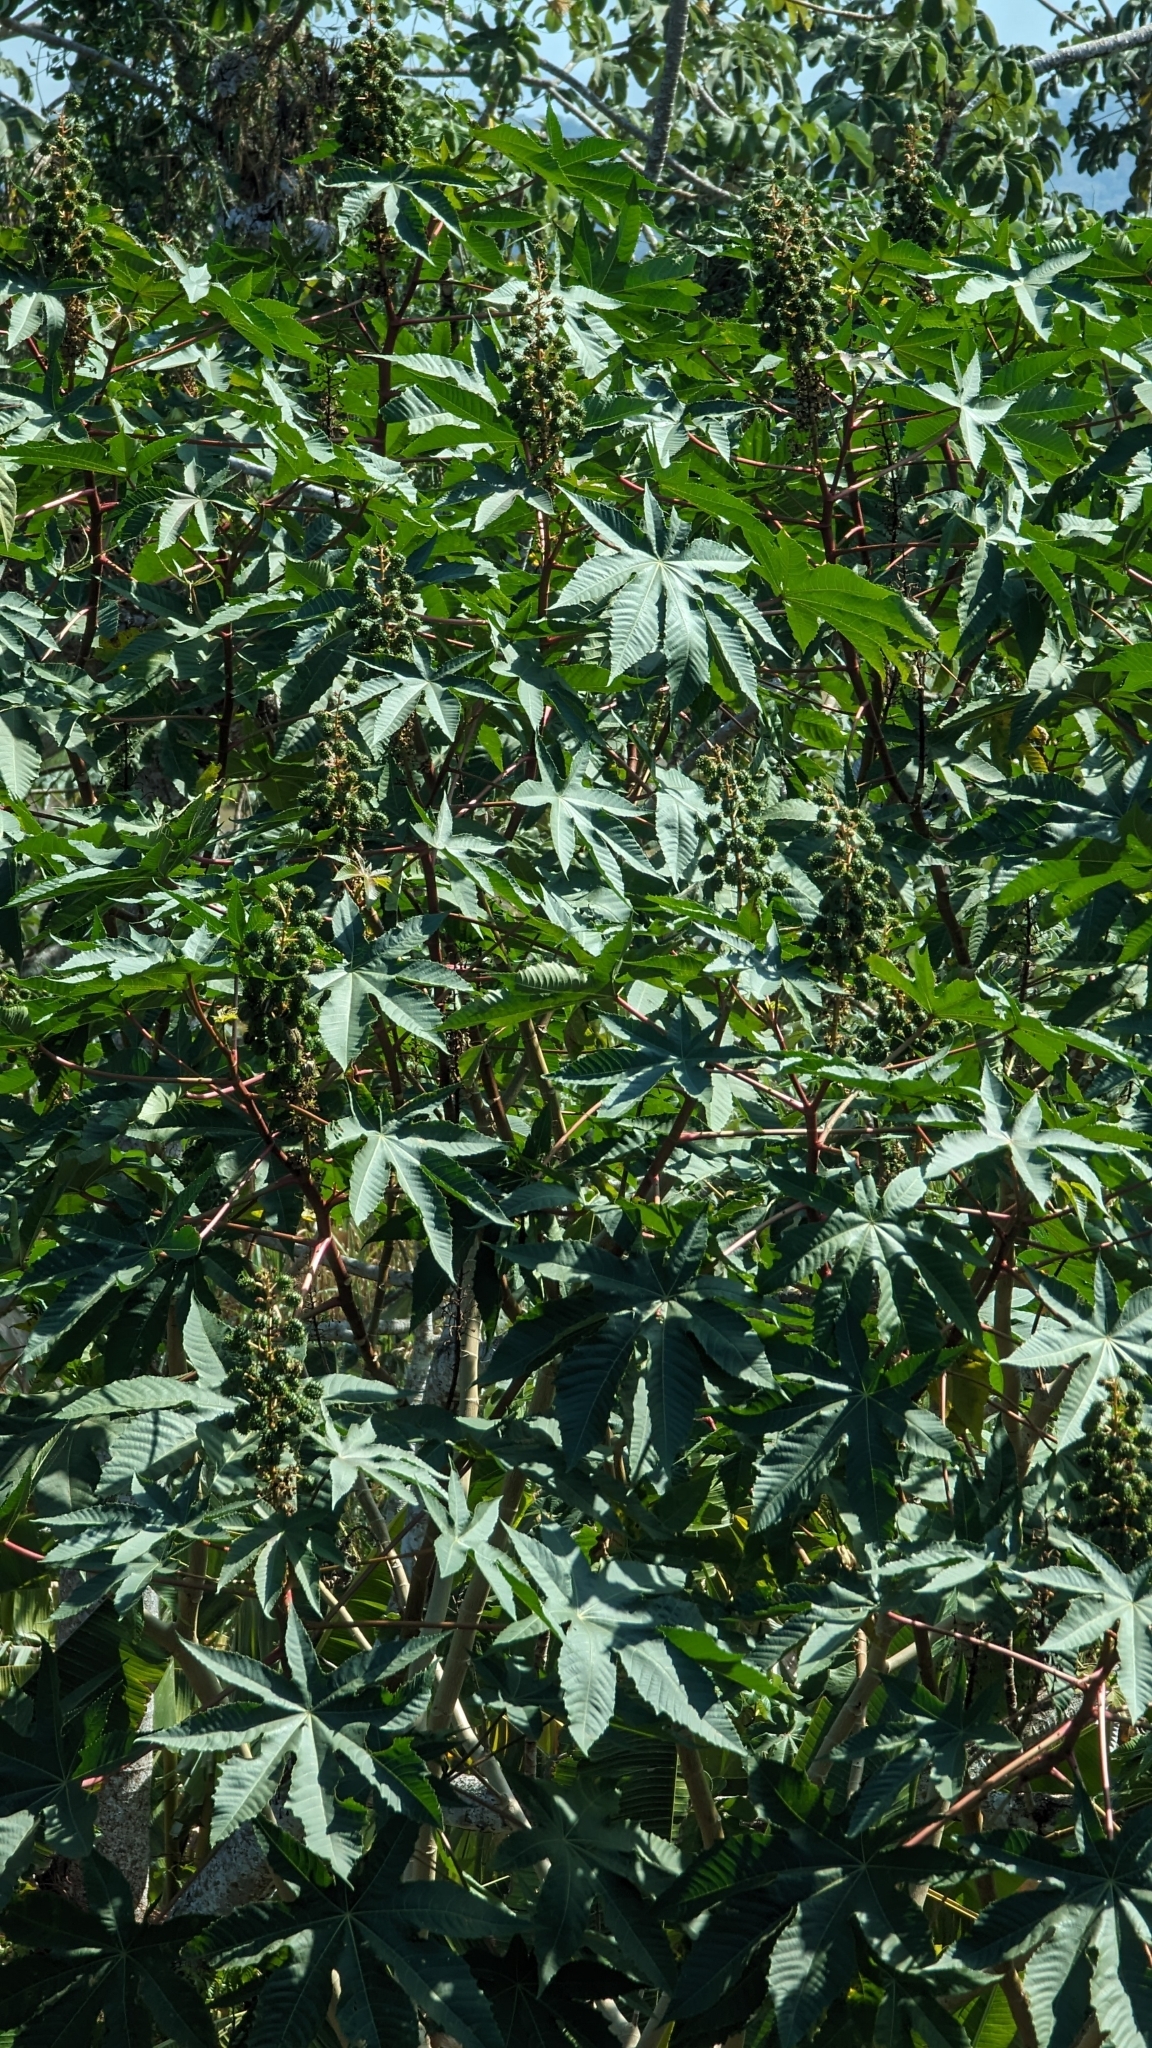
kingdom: Plantae
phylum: Tracheophyta
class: Magnoliopsida
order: Malpighiales
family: Euphorbiaceae
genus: Ricinus
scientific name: Ricinus communis
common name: Castor-oil-plant
